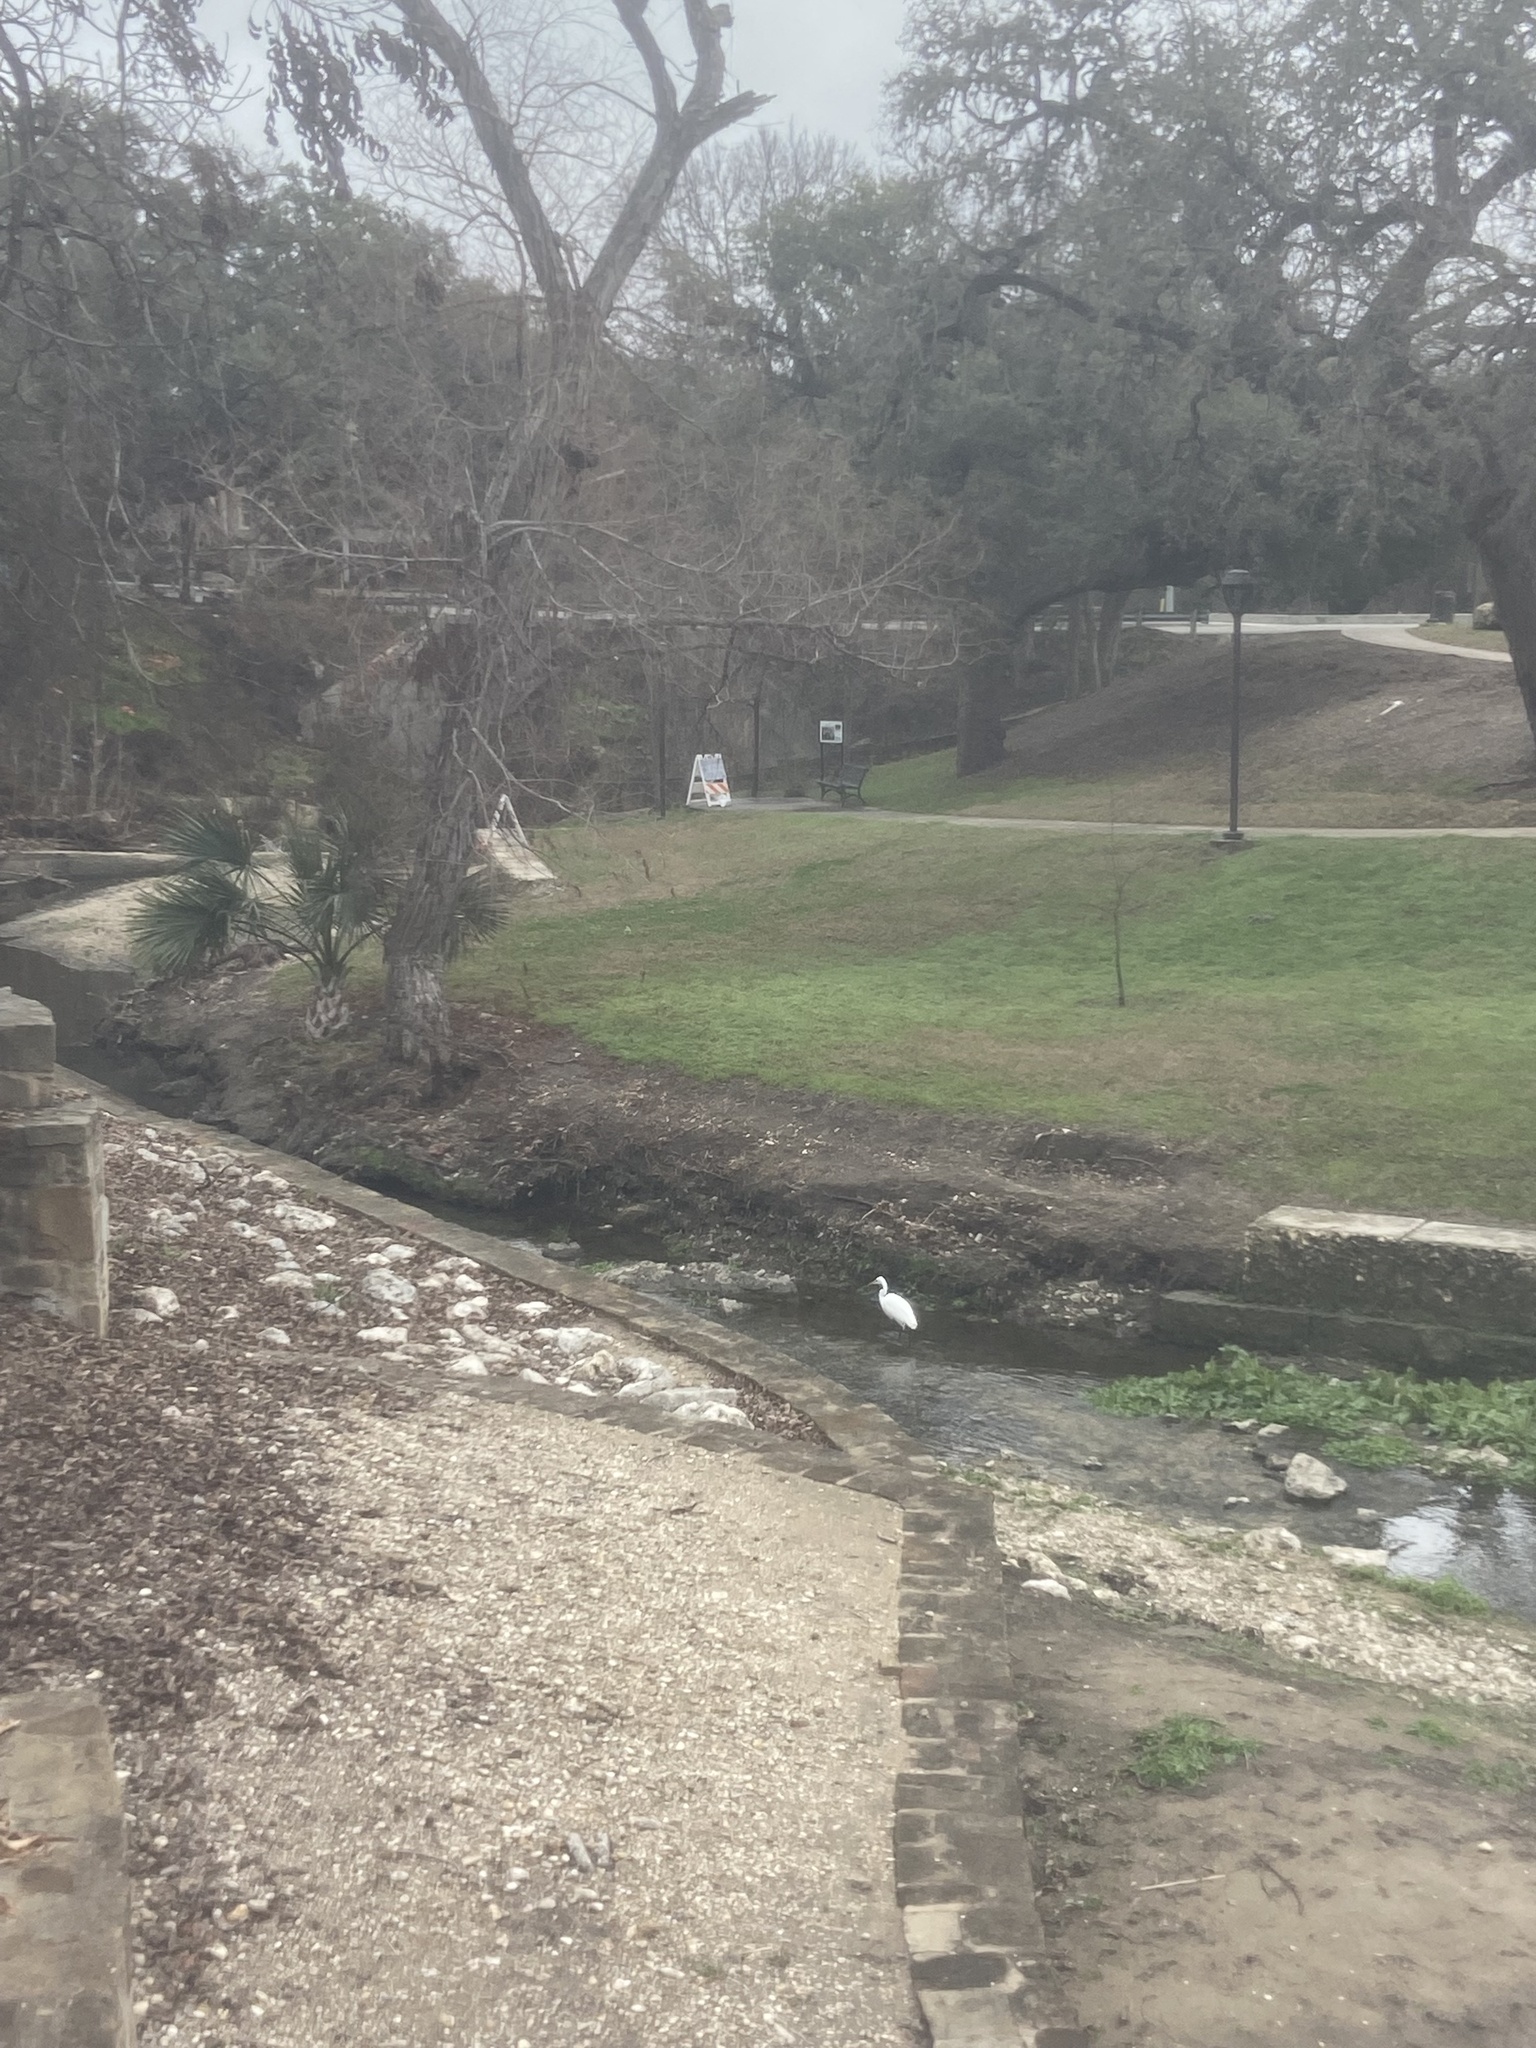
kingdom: Animalia
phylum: Chordata
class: Aves
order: Pelecaniformes
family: Ardeidae
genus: Ardea
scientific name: Ardea alba
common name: Great egret
